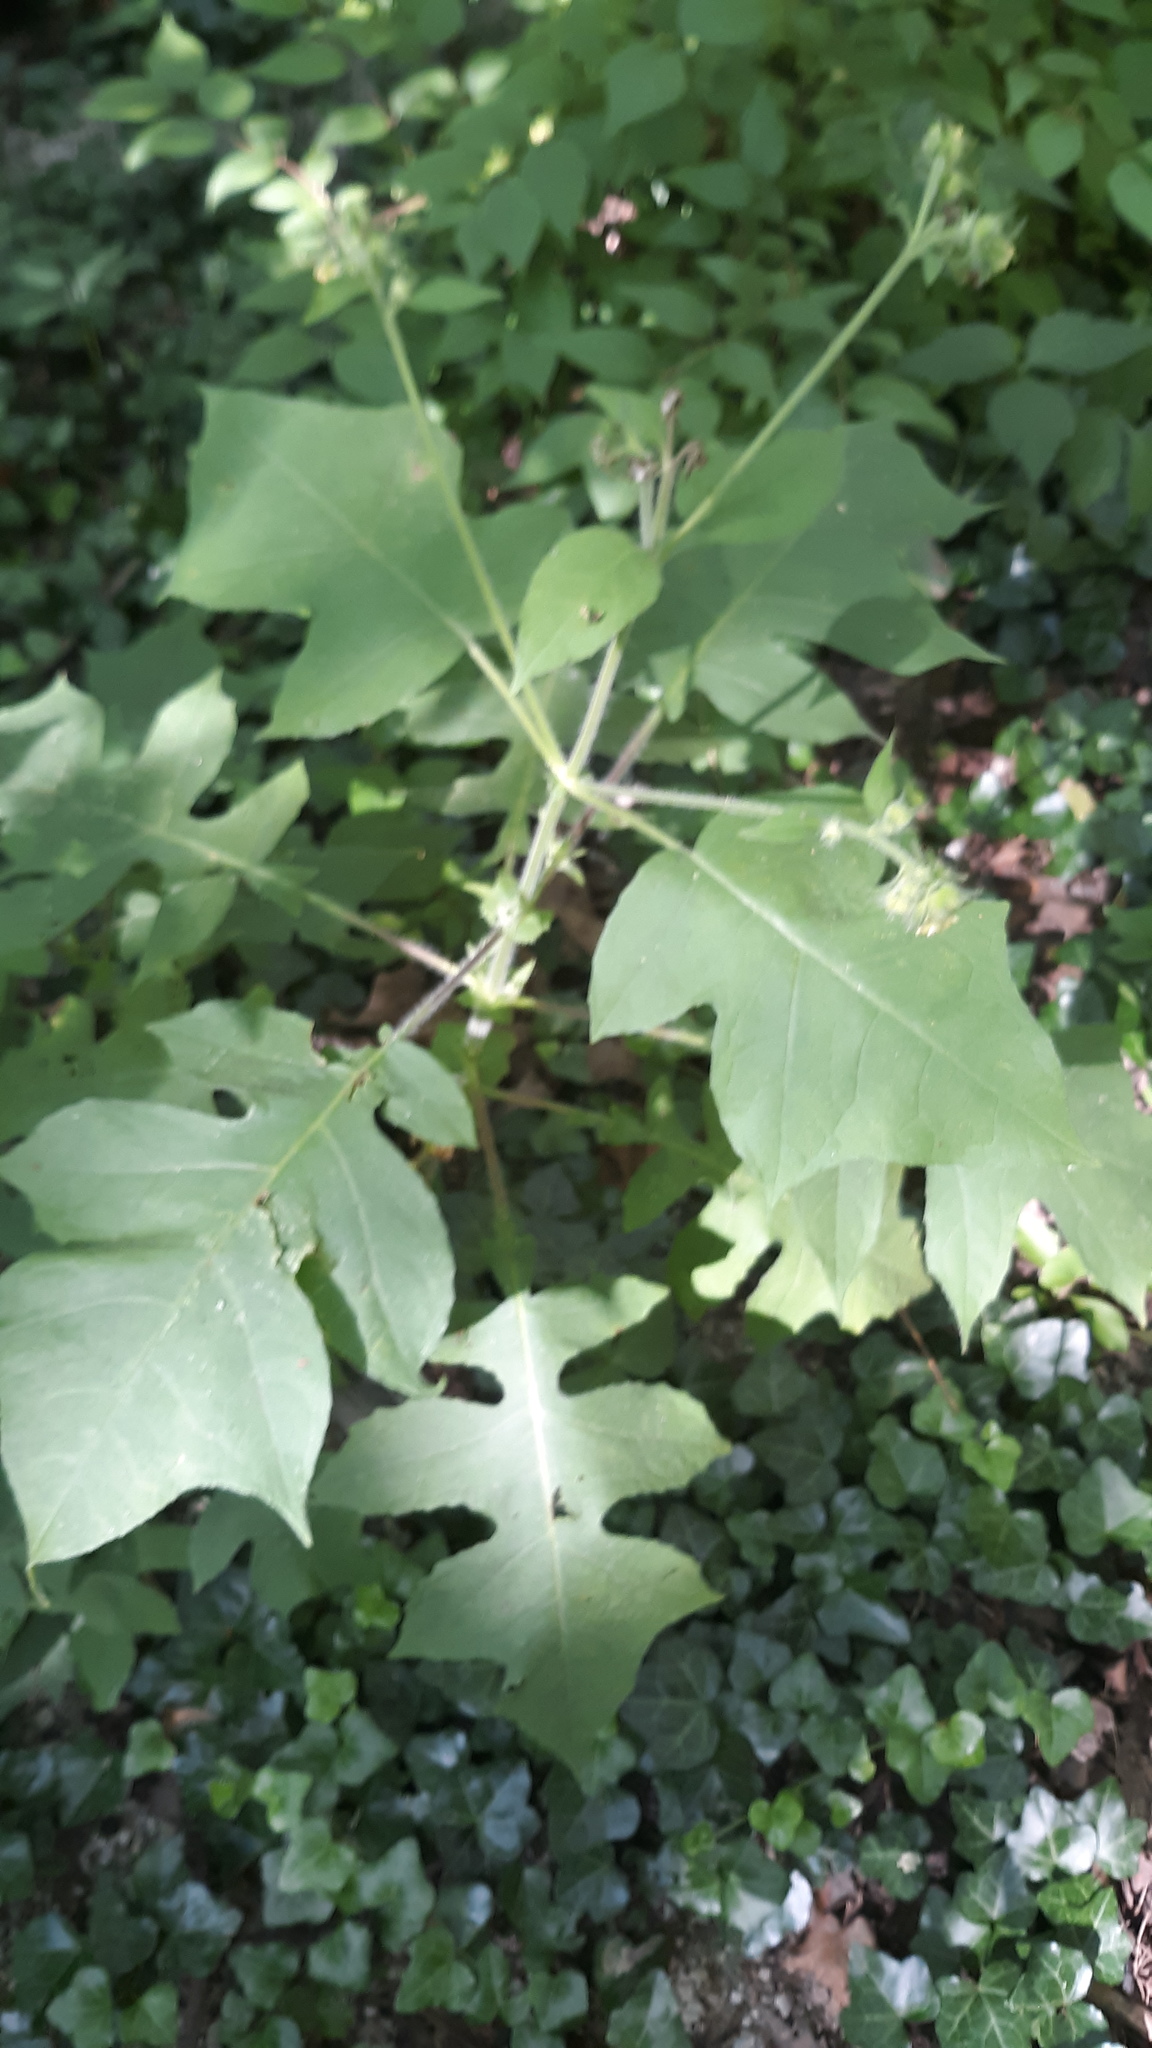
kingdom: Plantae
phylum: Tracheophyta
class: Magnoliopsida
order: Asterales
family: Asteraceae
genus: Polymnia
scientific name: Polymnia canadensis
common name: Pale-flowered leafcup
